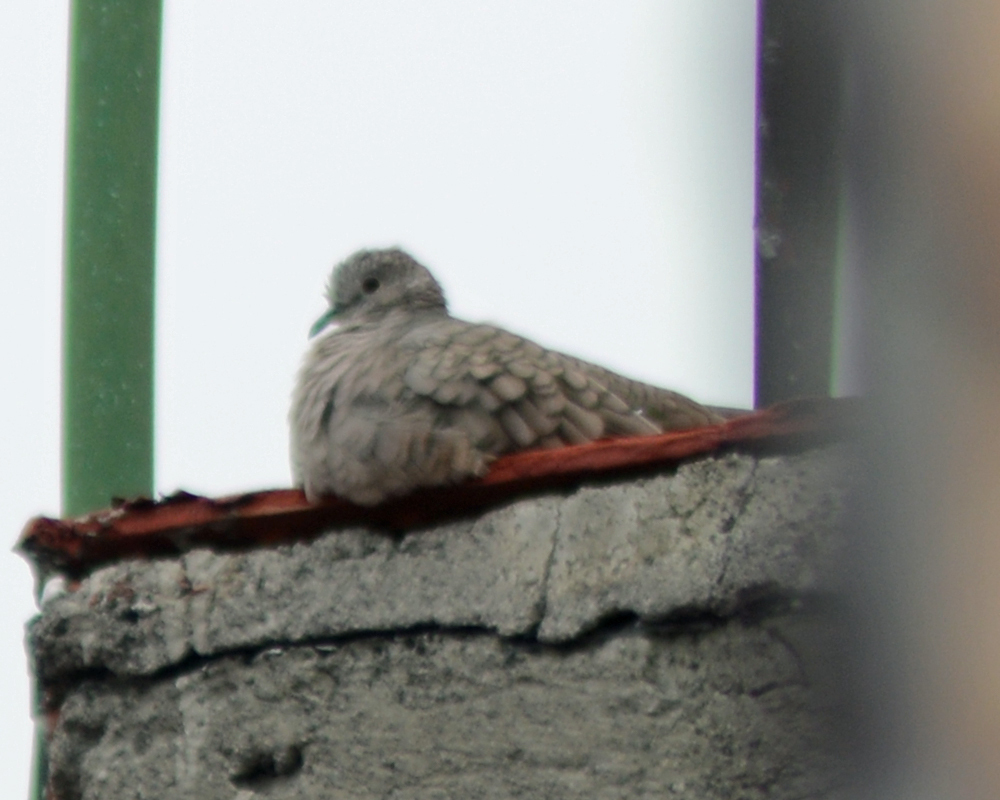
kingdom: Animalia
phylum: Chordata
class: Aves
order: Columbiformes
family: Columbidae
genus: Columbina
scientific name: Columbina inca
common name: Inca dove
